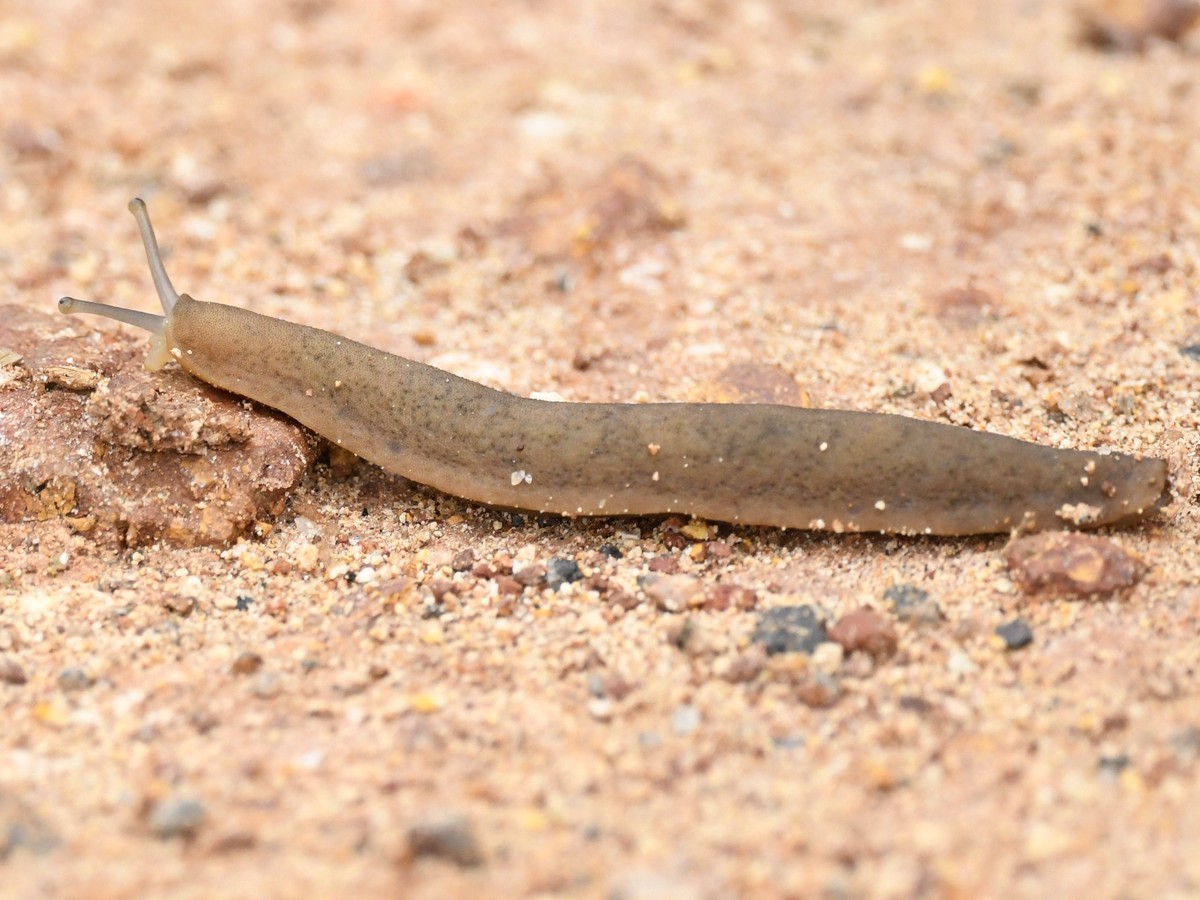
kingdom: Animalia
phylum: Mollusca
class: Gastropoda
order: Systellommatophora
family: Veronicellidae
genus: Laevicaulis
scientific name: Laevicaulis alte
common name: Tropical leatherleaf
